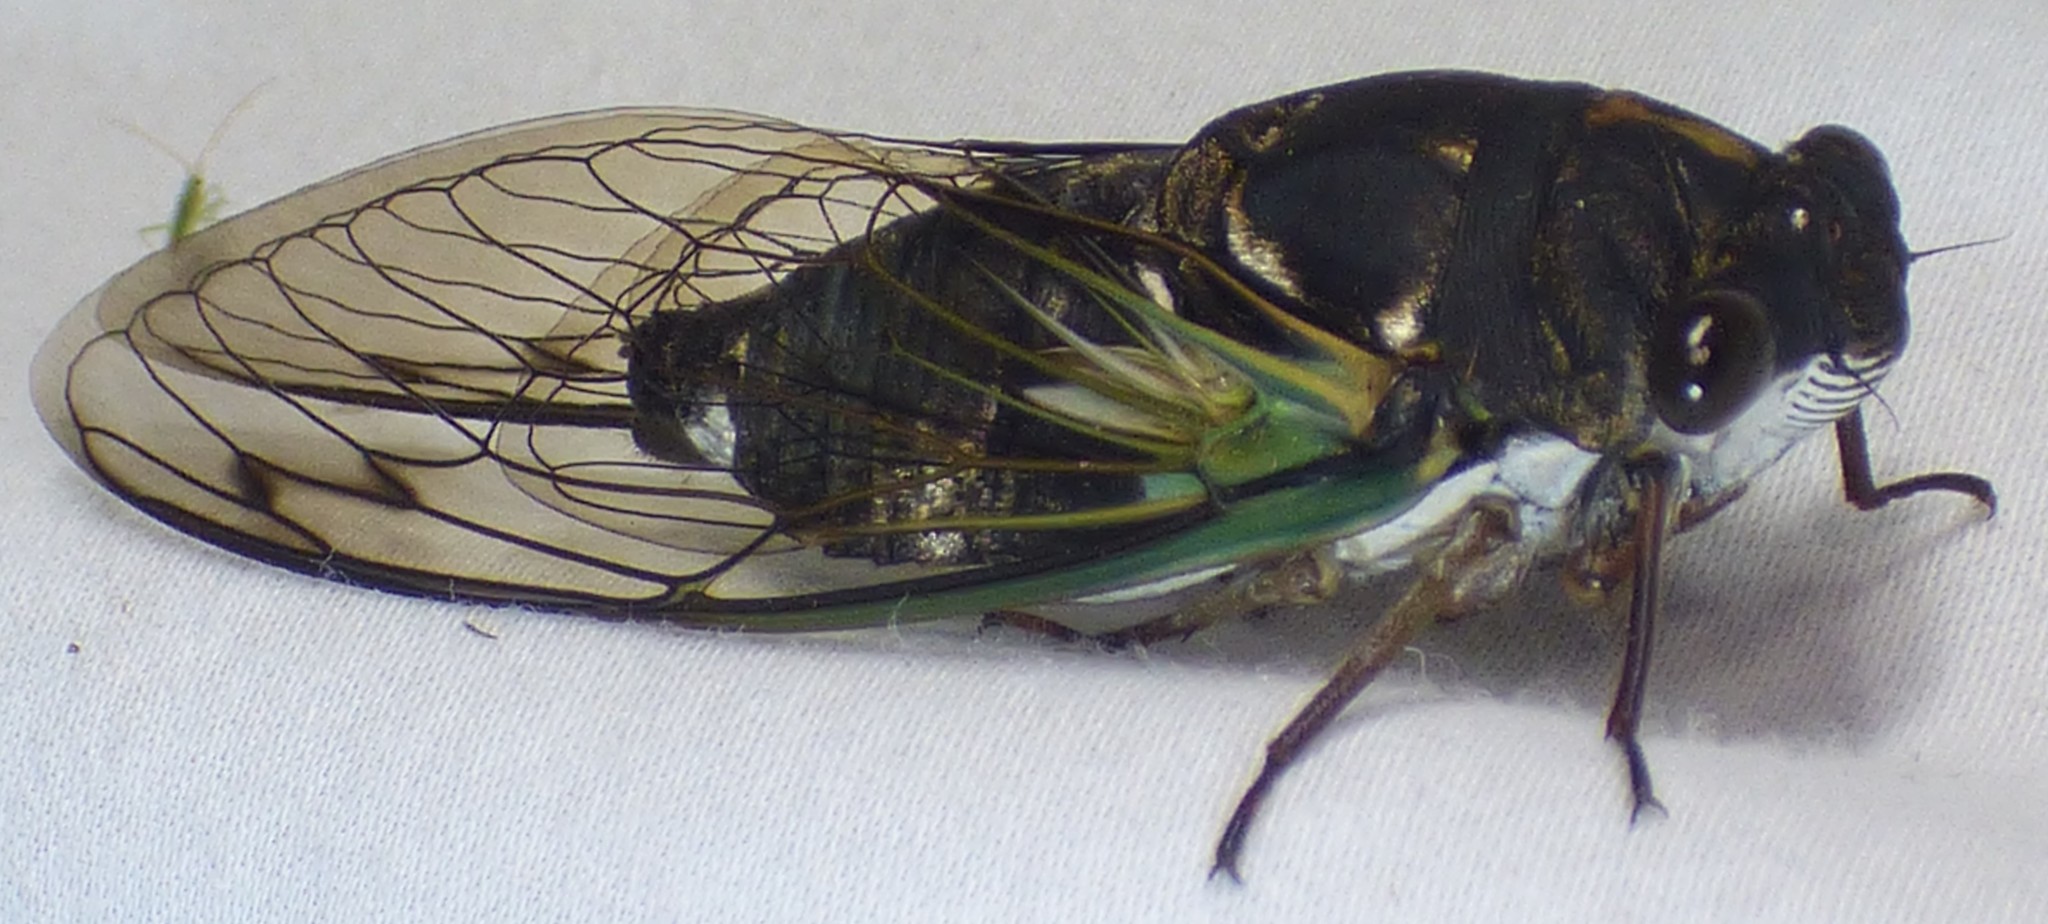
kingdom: Animalia
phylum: Arthropoda
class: Insecta
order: Hemiptera
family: Cicadidae
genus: Neotibicen
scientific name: Neotibicen lyricen
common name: Lyric cicada
